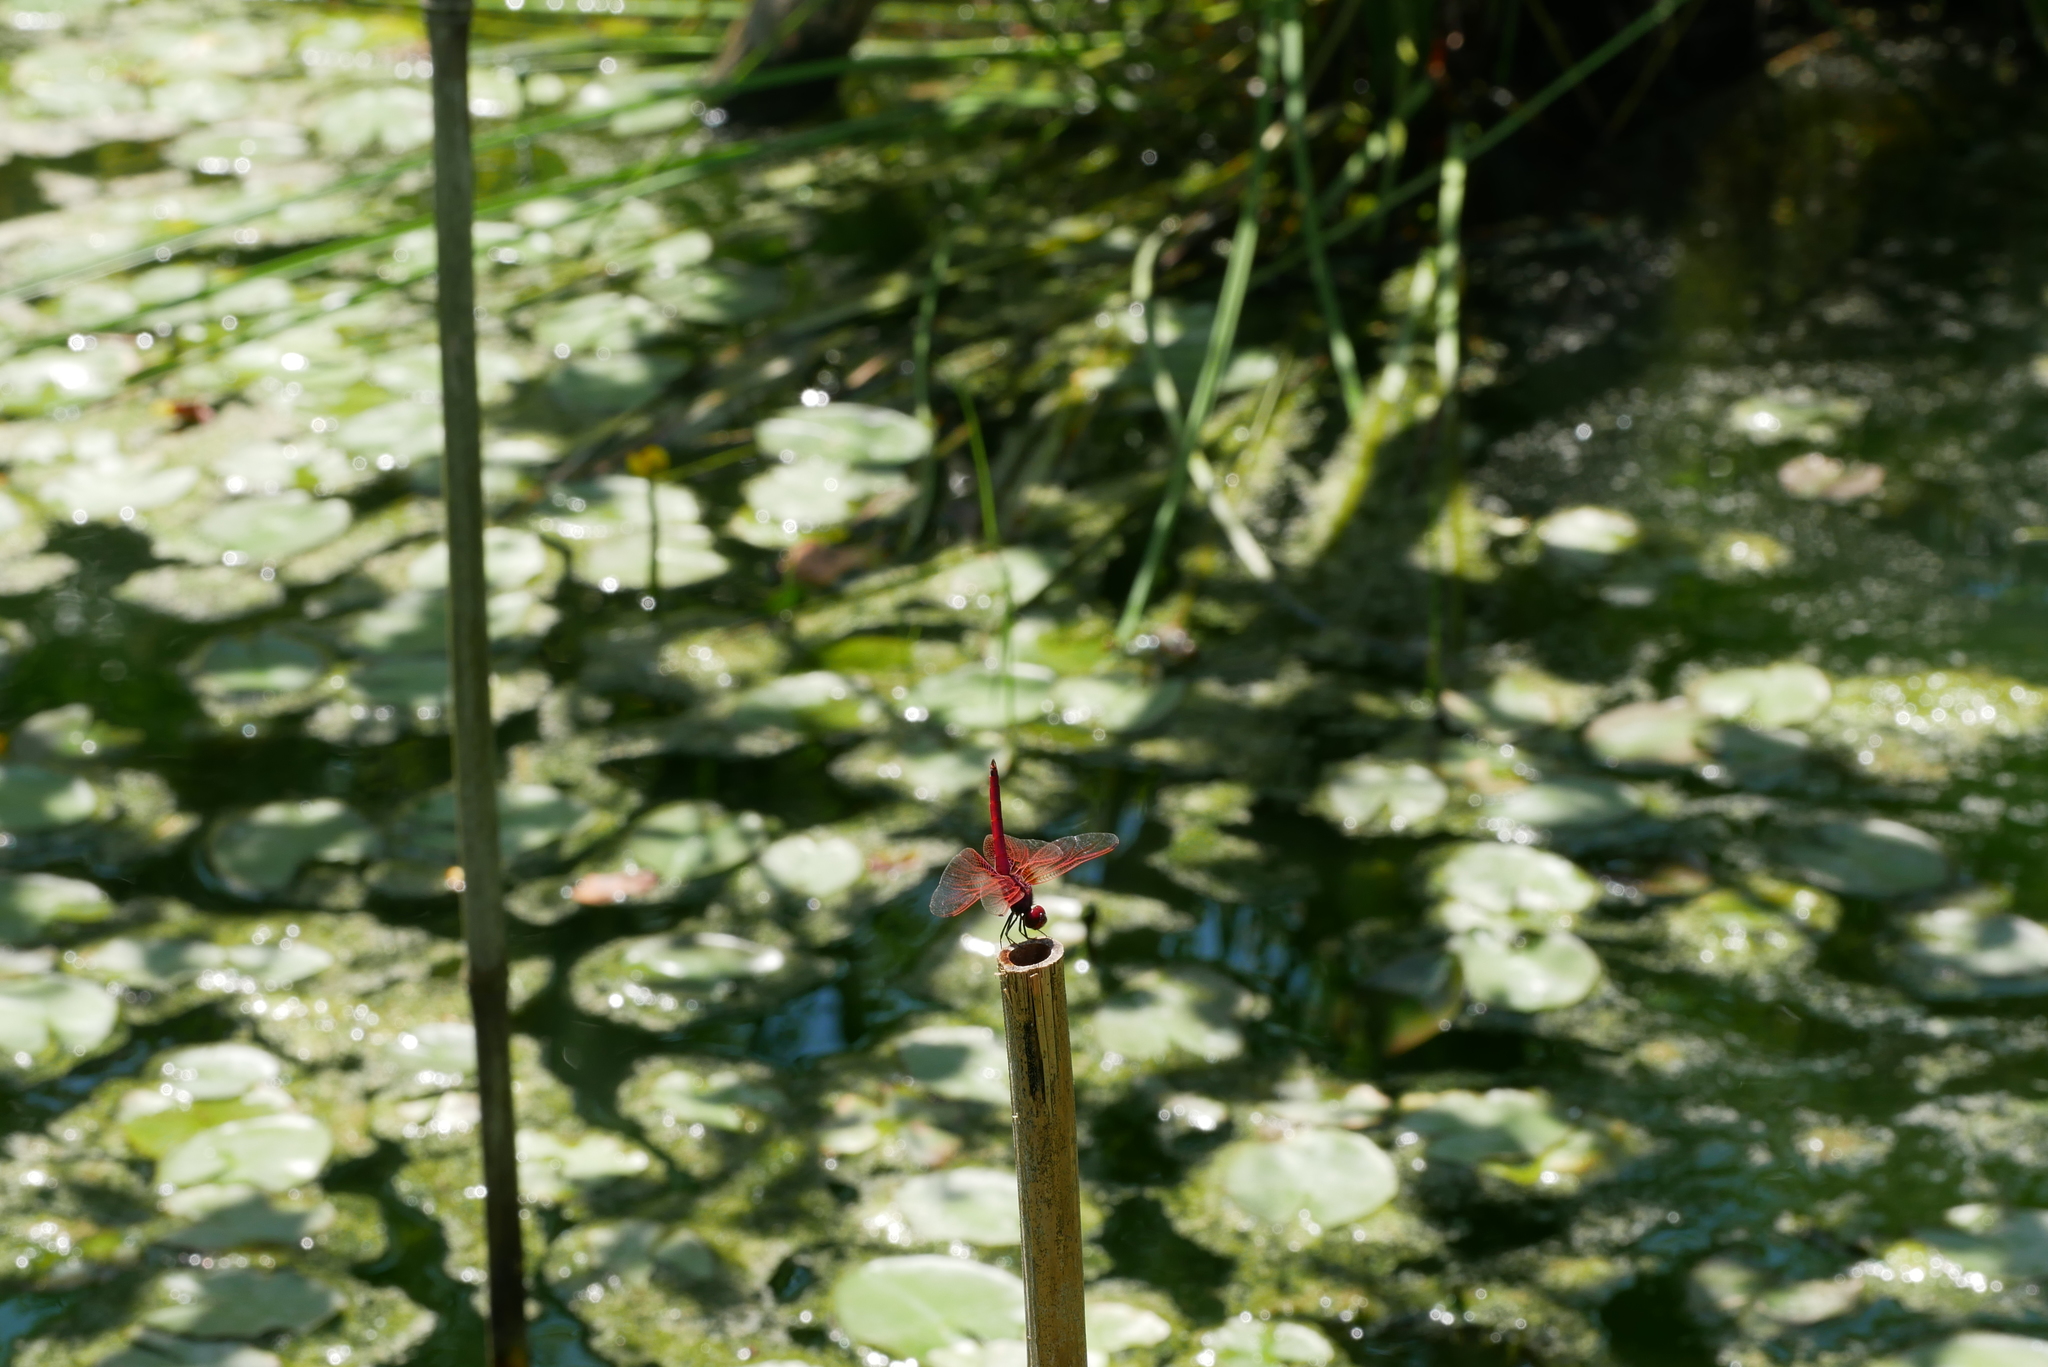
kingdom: Animalia
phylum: Arthropoda
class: Insecta
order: Odonata
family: Libellulidae
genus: Trithemis
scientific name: Trithemis aurora
